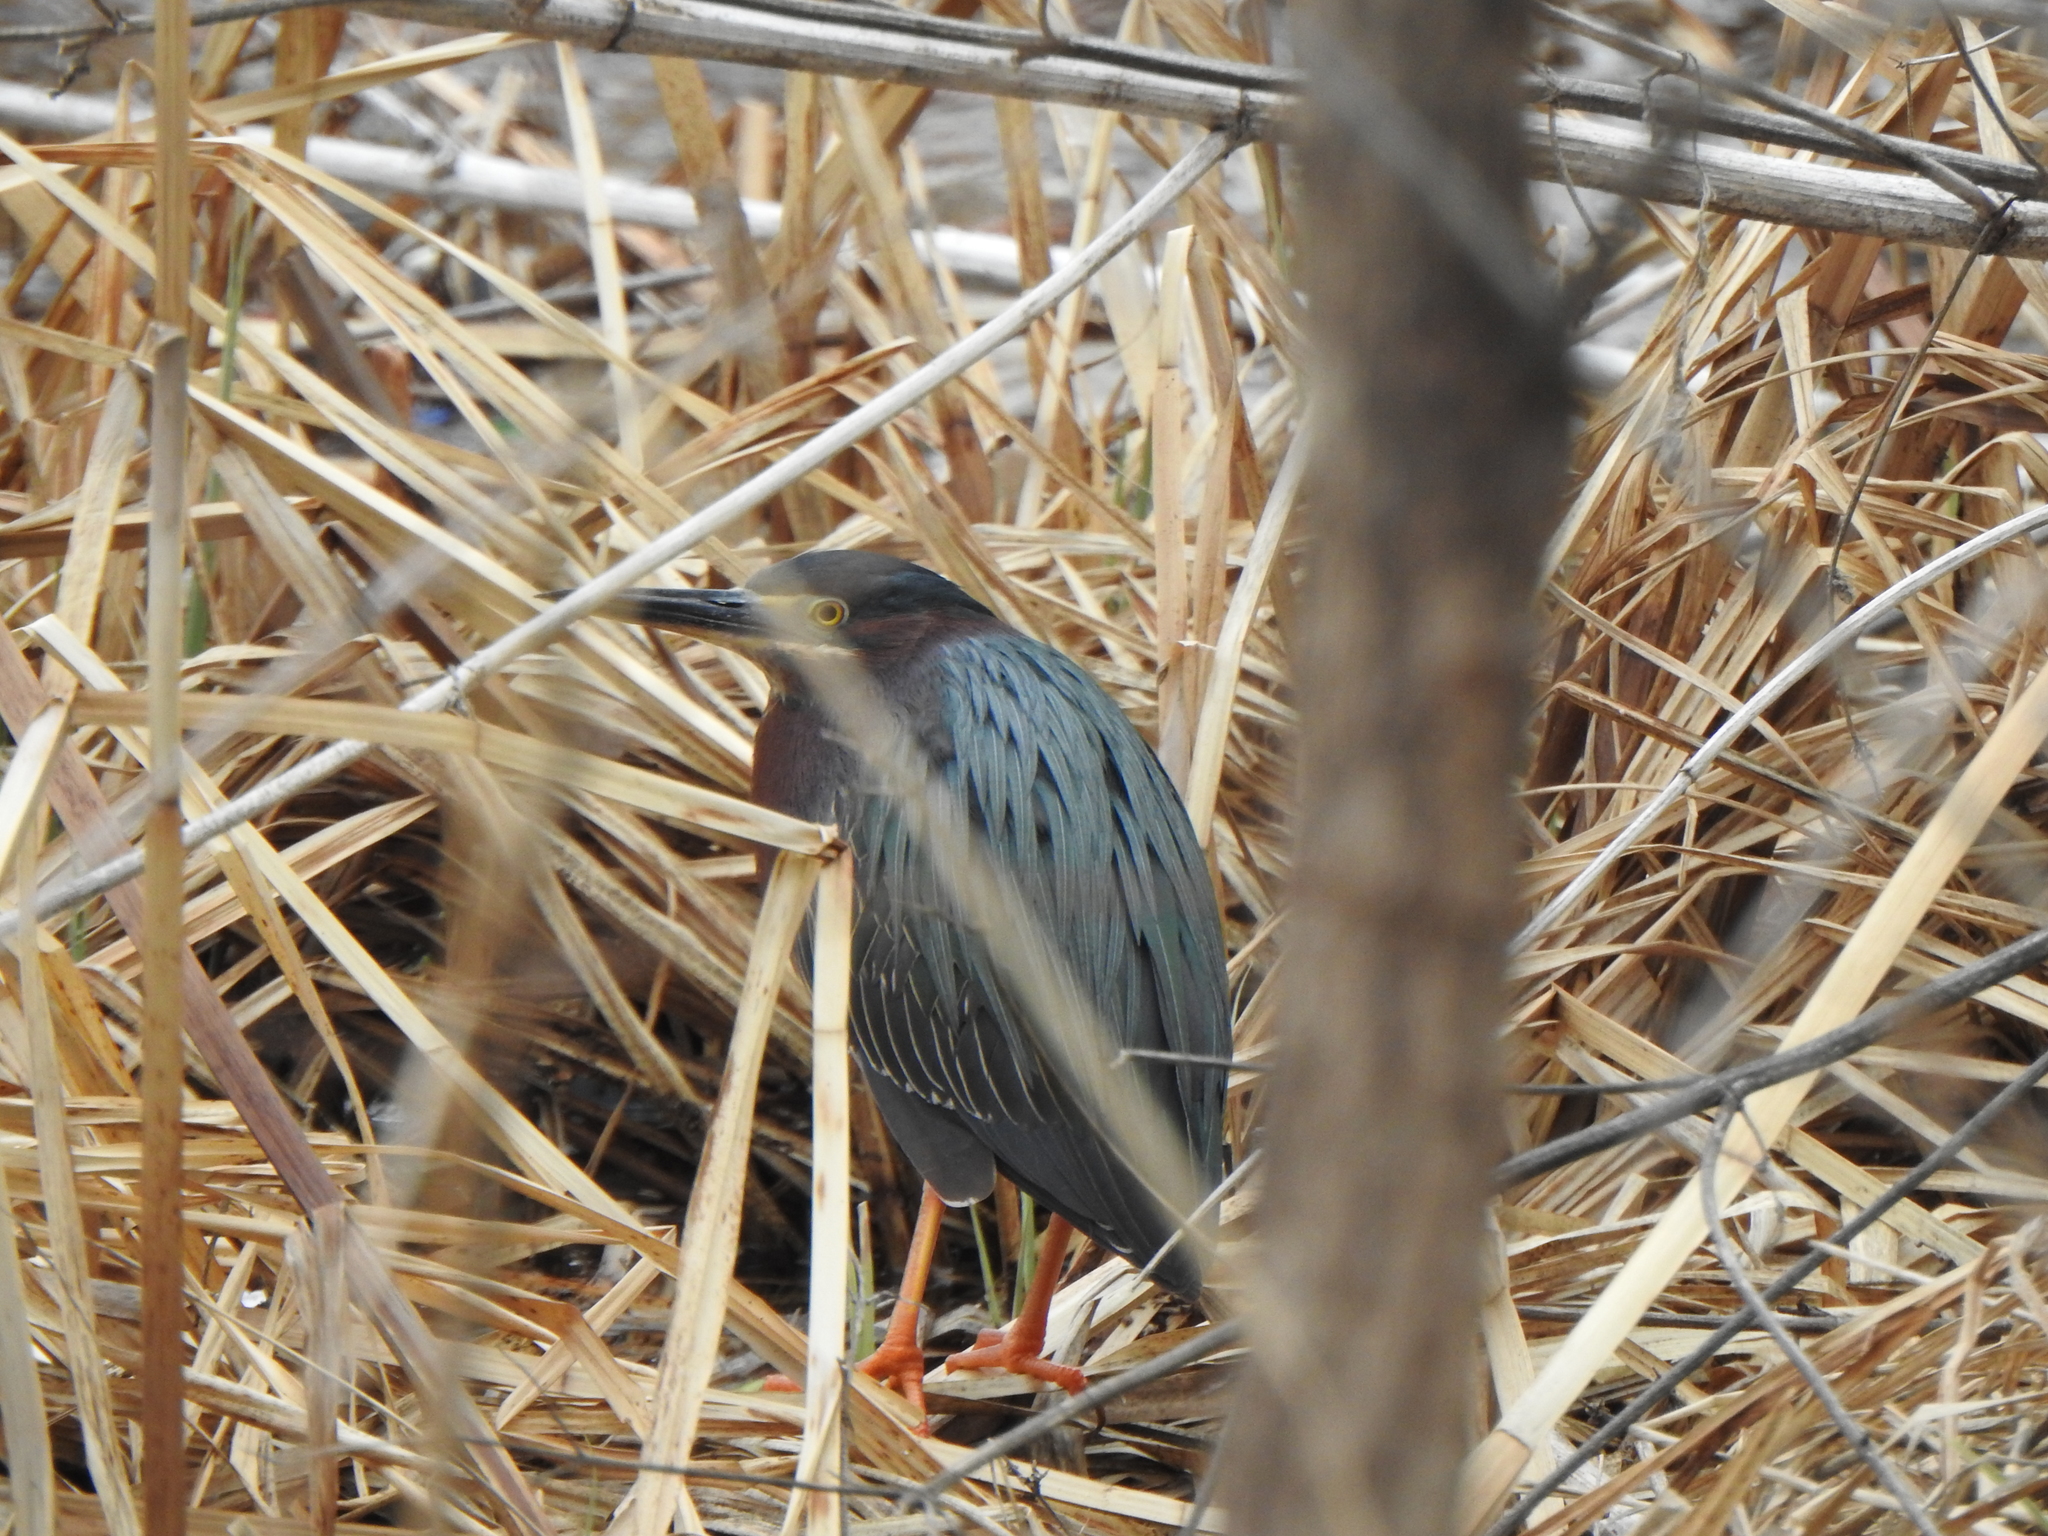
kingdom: Animalia
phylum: Chordata
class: Aves
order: Pelecaniformes
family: Ardeidae
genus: Butorides
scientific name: Butorides virescens
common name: Green heron
